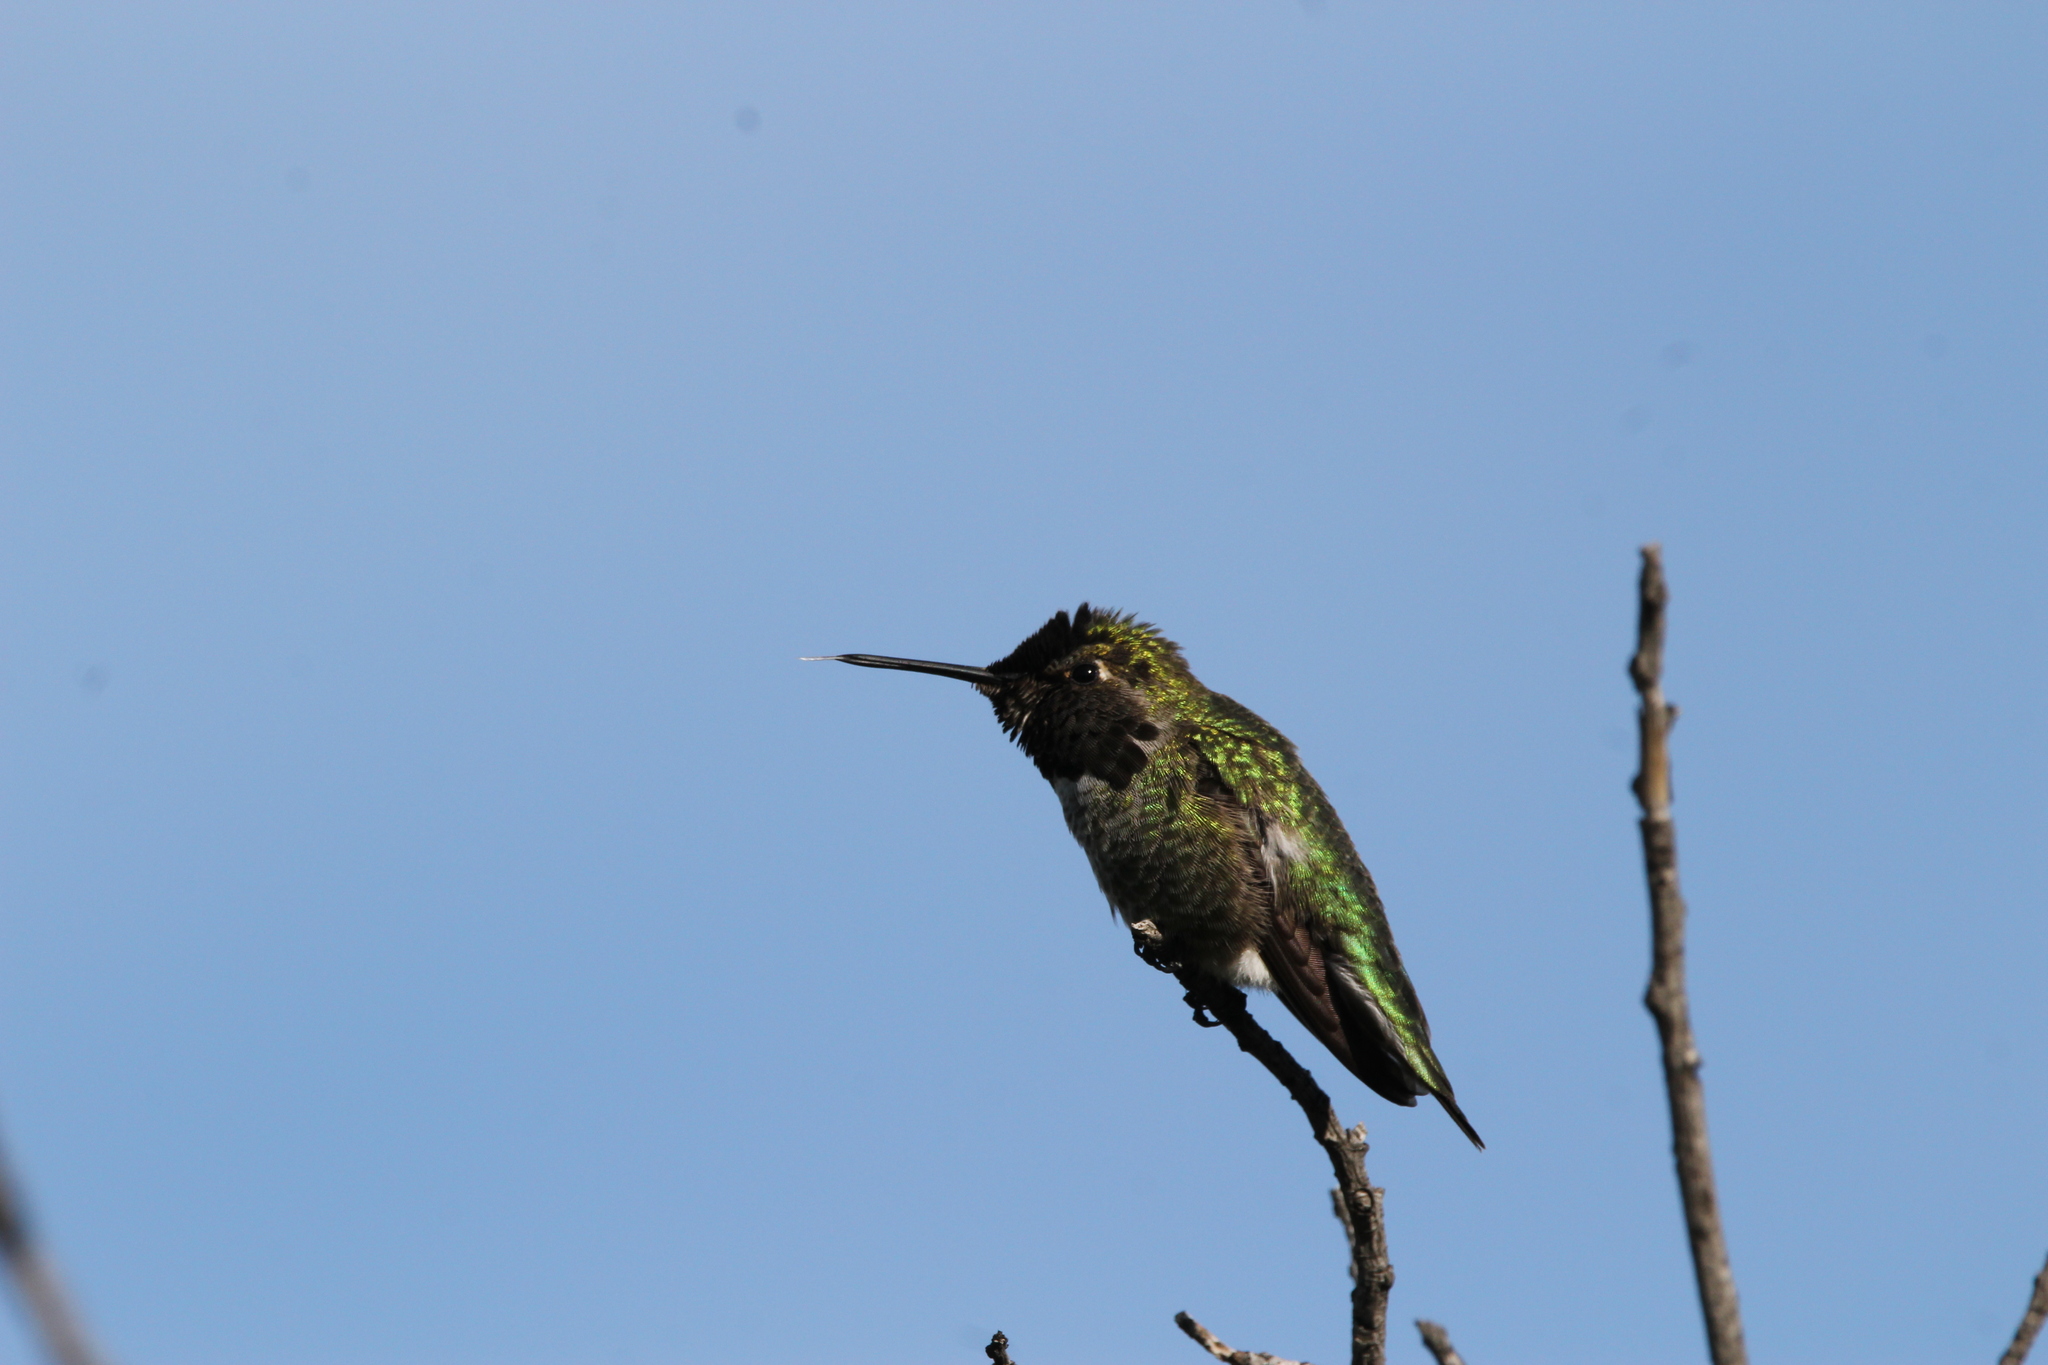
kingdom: Animalia
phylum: Chordata
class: Aves
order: Apodiformes
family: Trochilidae
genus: Calypte
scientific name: Calypte anna
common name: Anna's hummingbird
